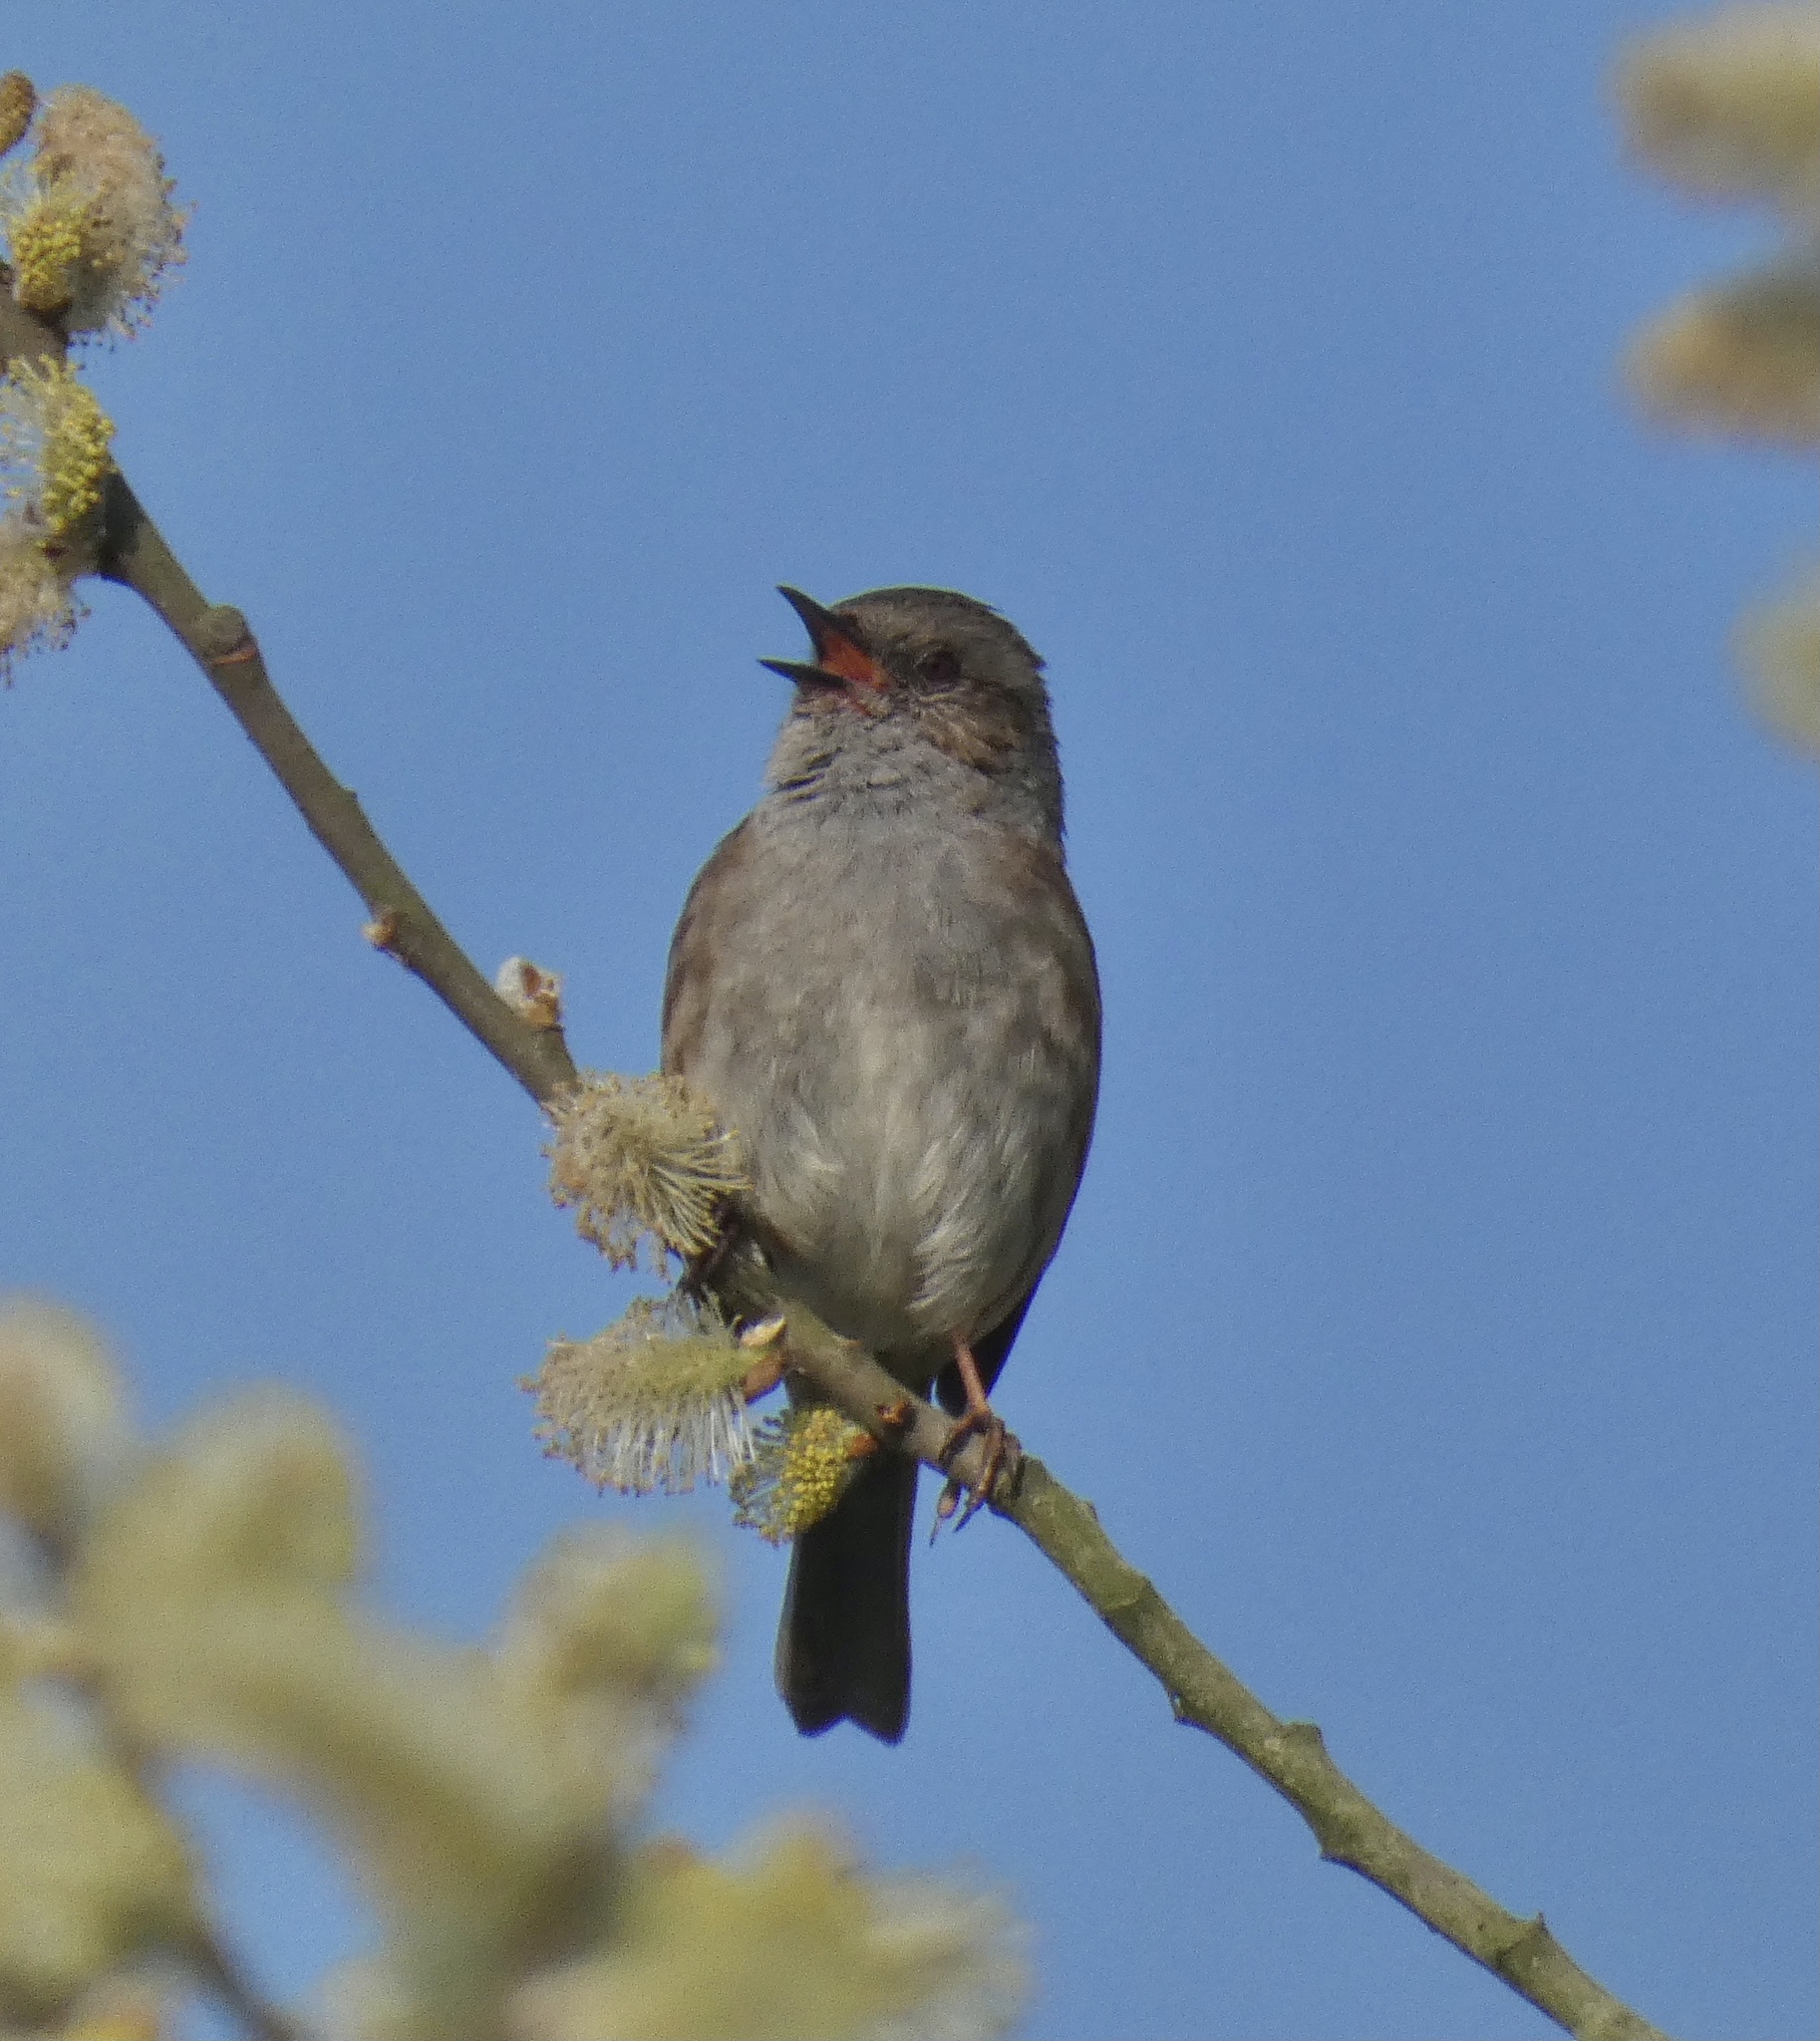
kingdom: Animalia
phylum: Chordata
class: Aves
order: Passeriformes
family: Prunellidae
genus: Prunella
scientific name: Prunella modularis
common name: Dunnock
